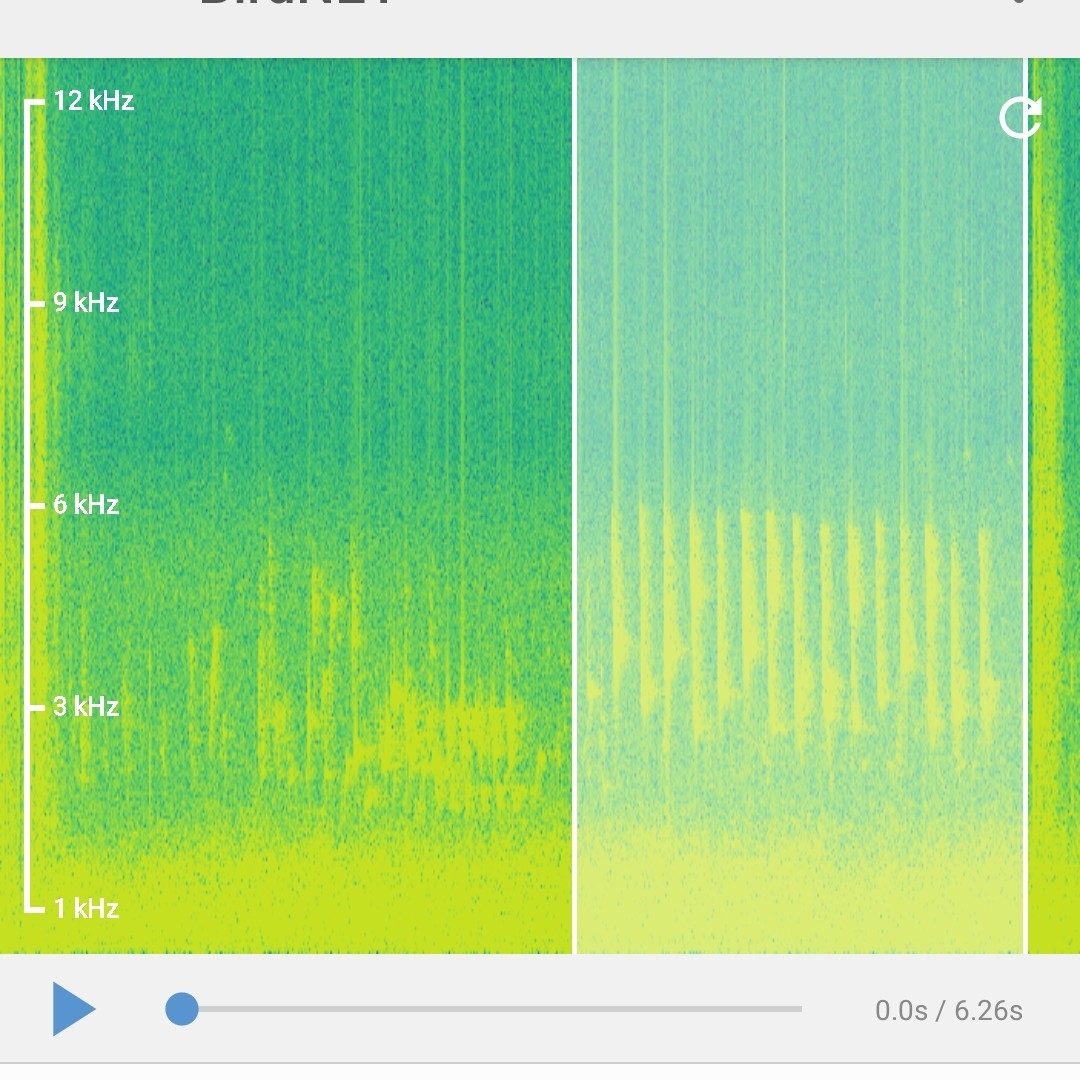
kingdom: Animalia
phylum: Chordata
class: Aves
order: Passeriformes
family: Phylloscopidae
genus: Phylloscopus
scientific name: Phylloscopus collybita
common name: Common chiffchaff
